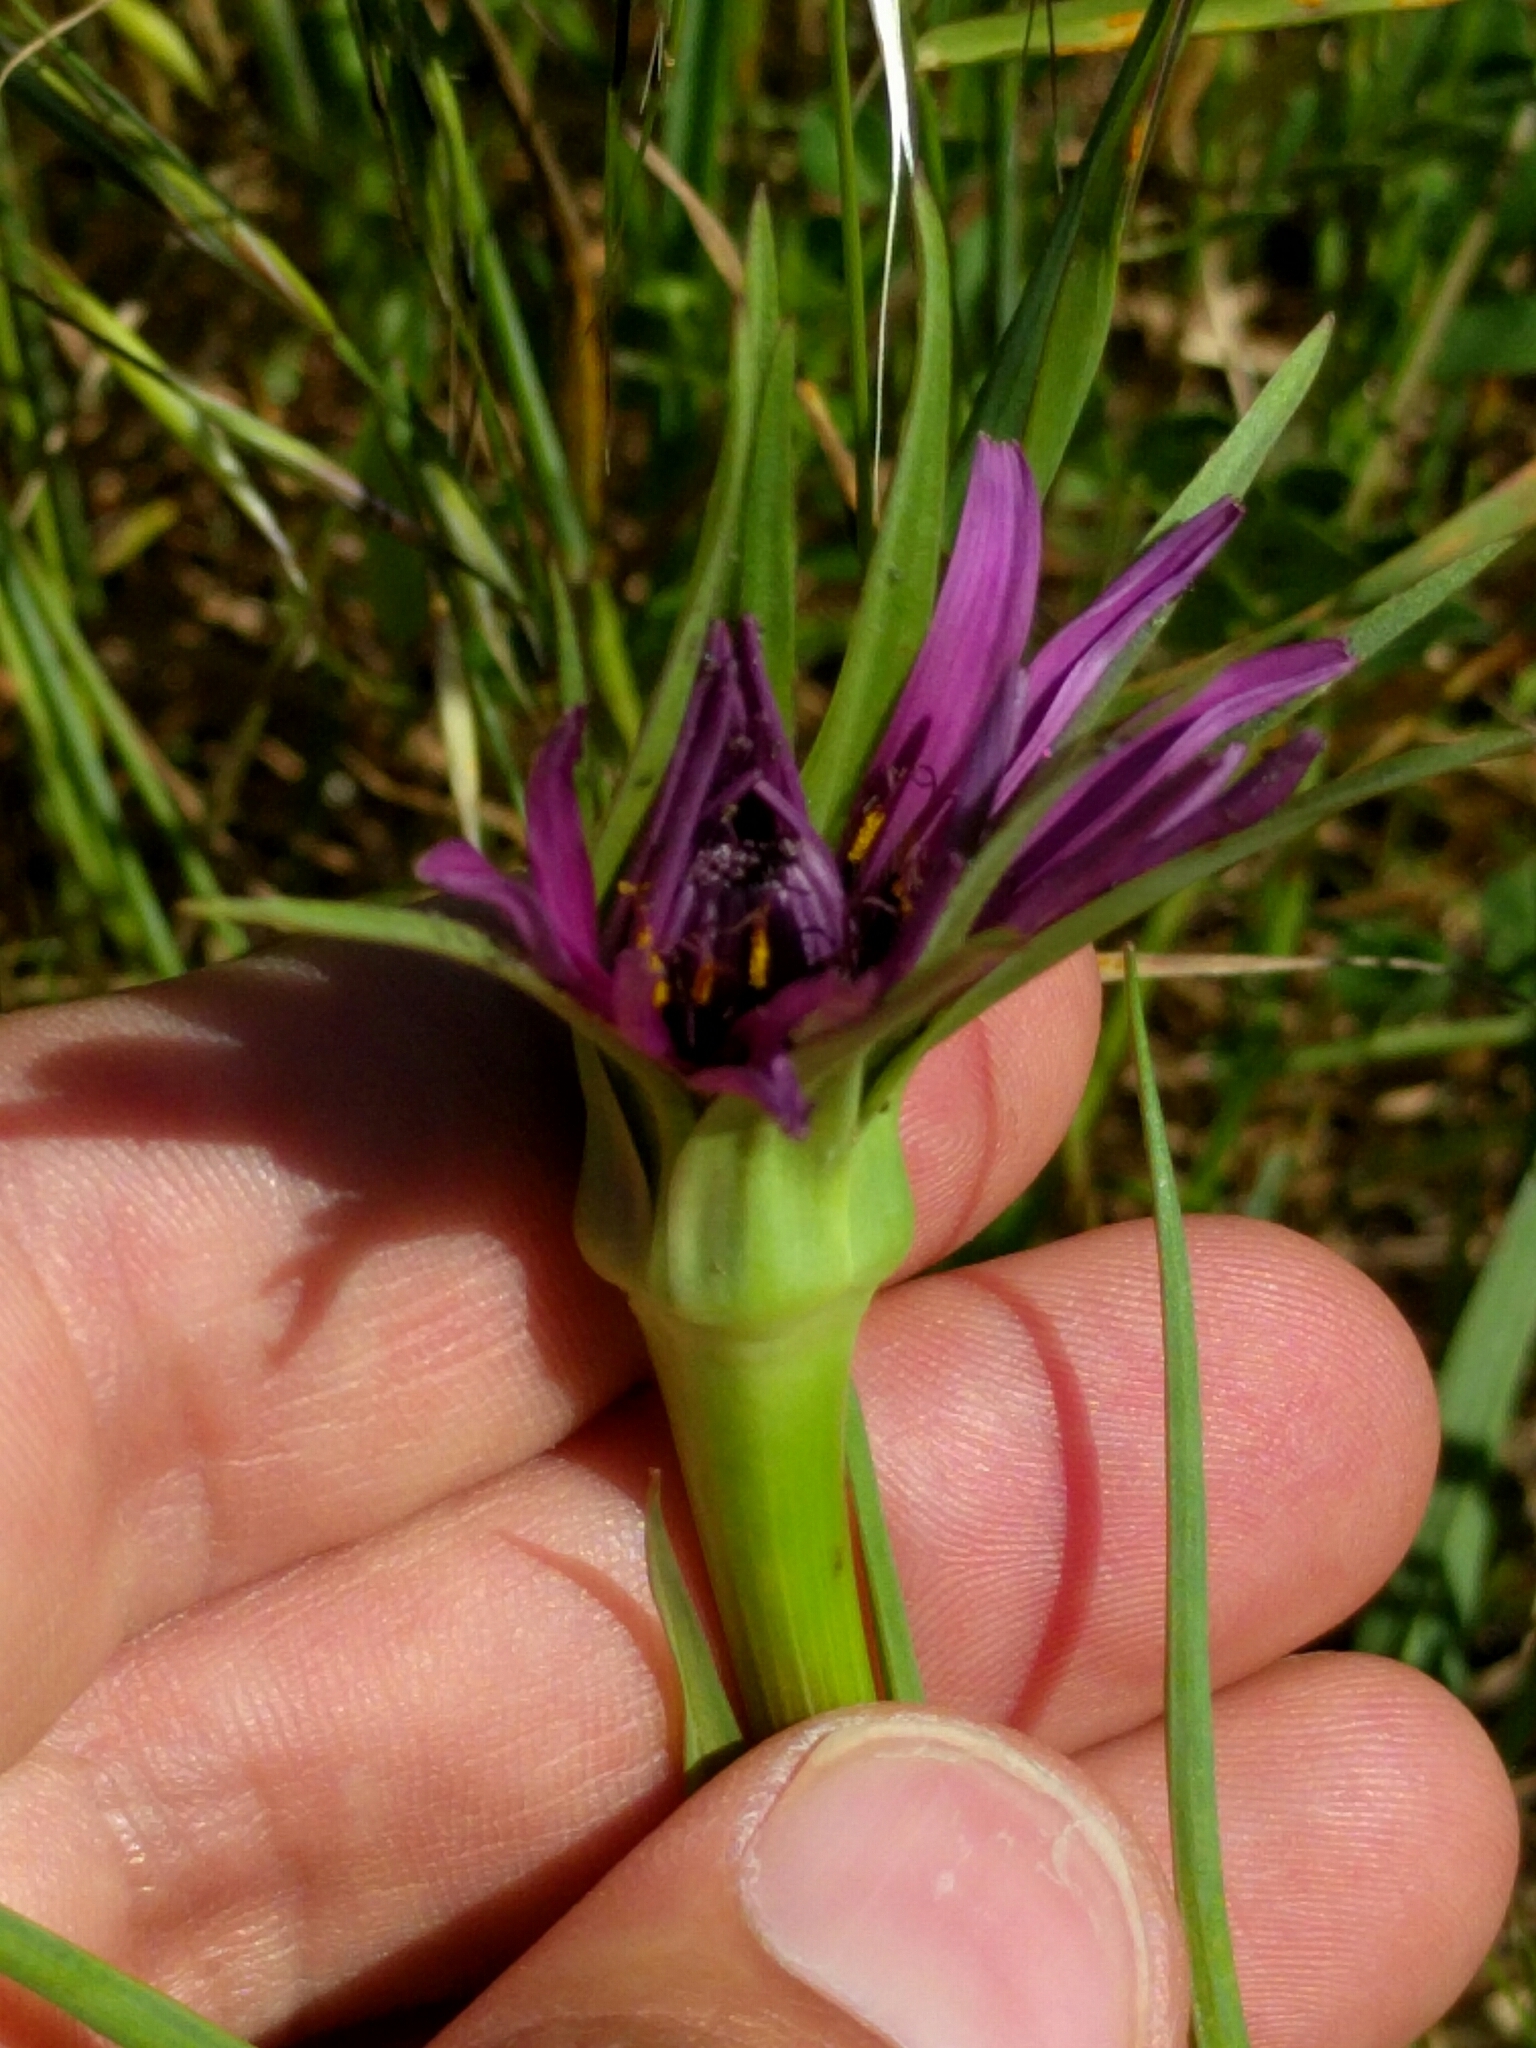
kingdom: Plantae
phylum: Tracheophyta
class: Magnoliopsida
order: Asterales
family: Asteraceae
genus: Tragopogon
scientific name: Tragopogon porrifolius
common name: Salsify
